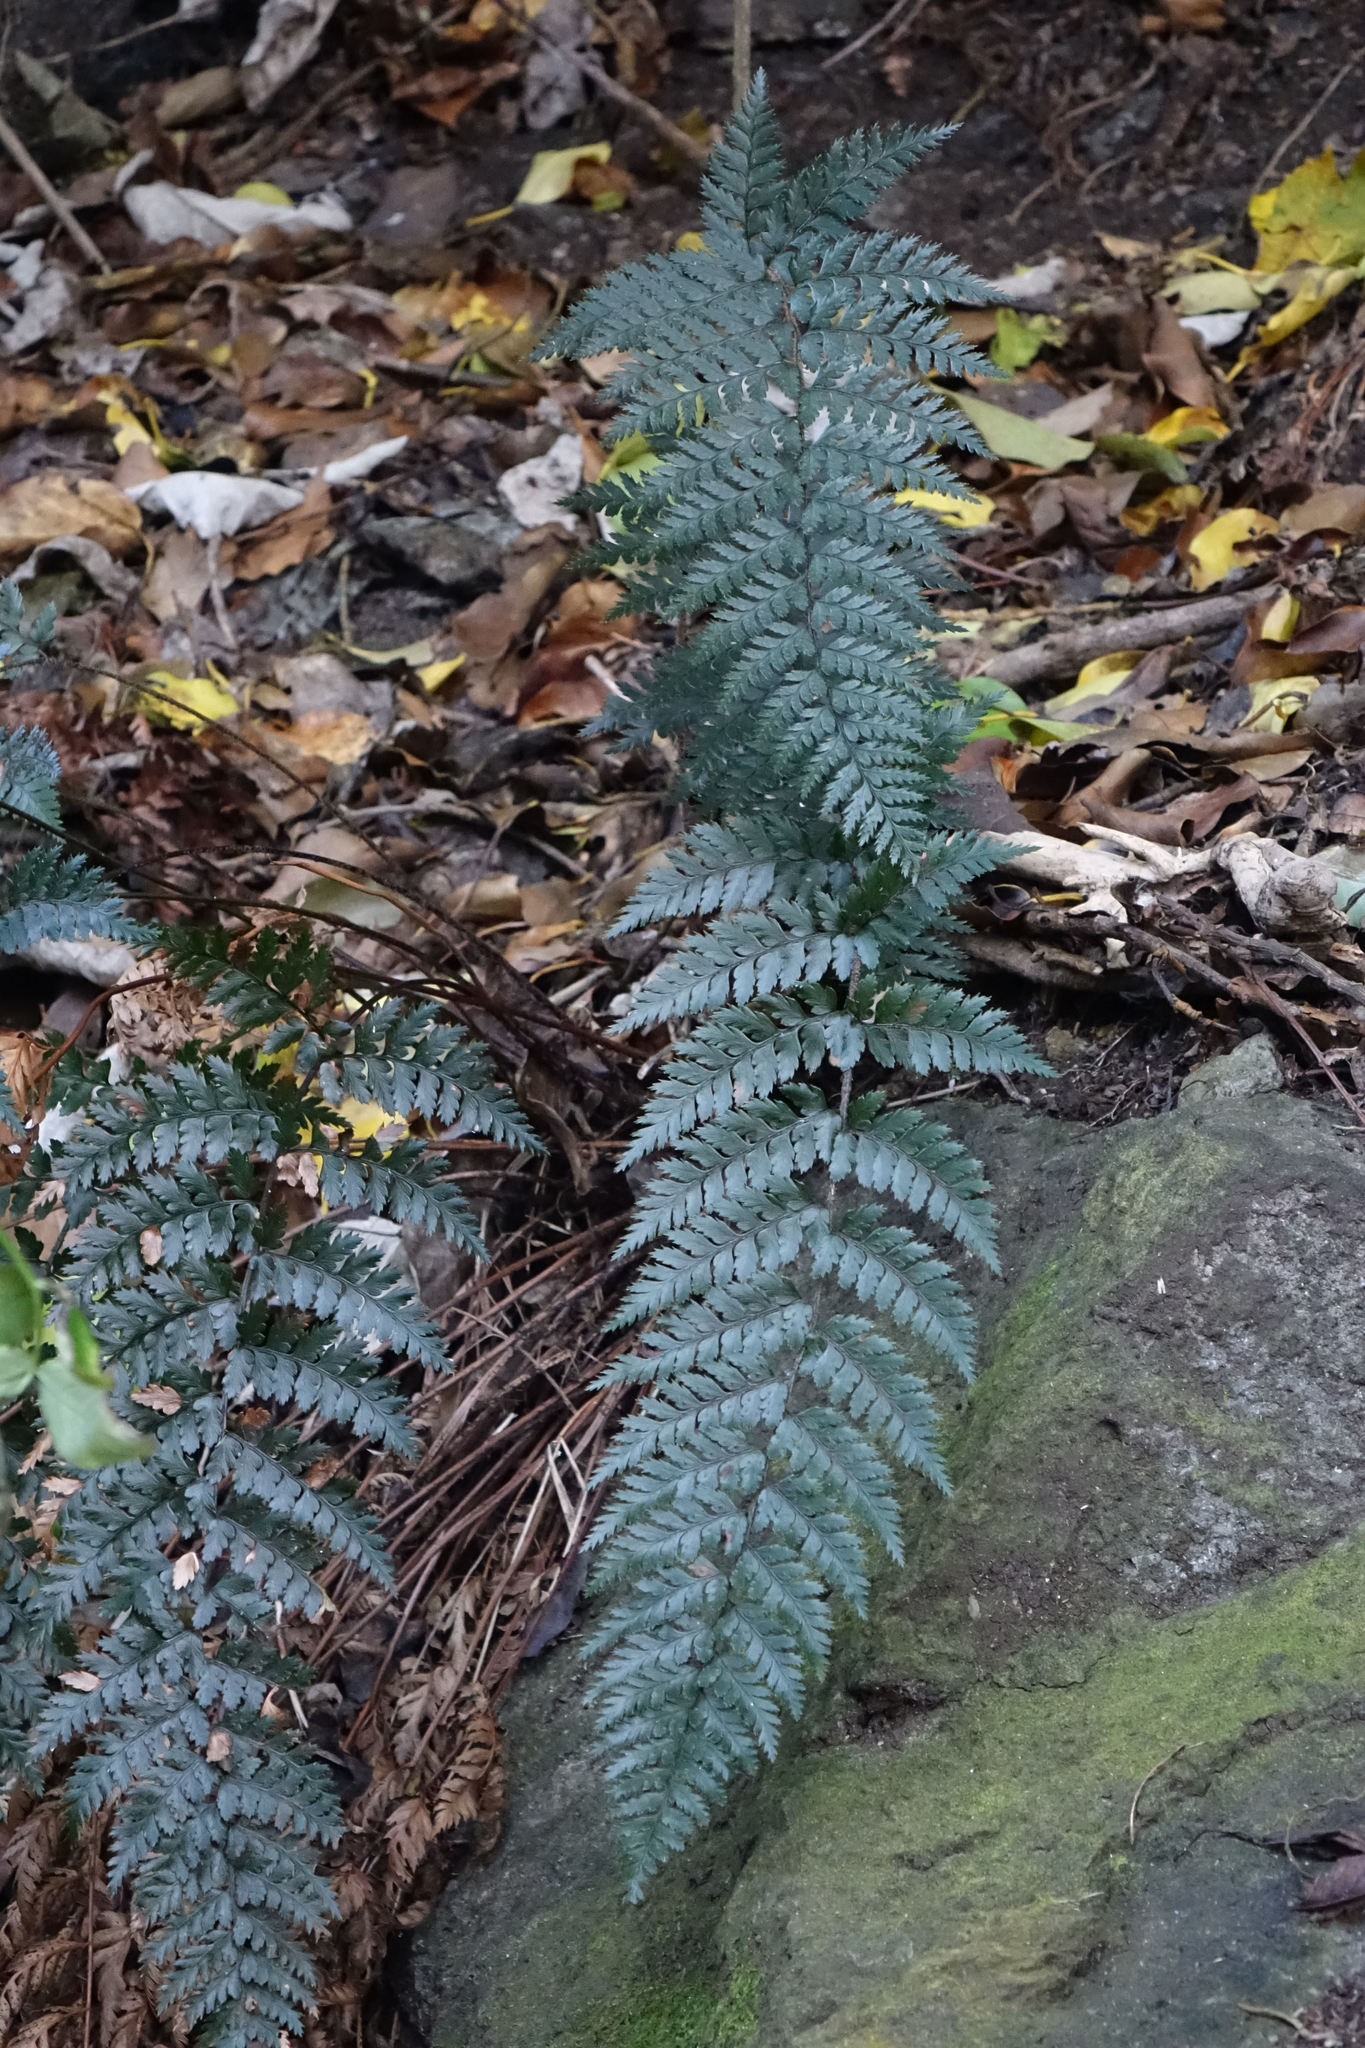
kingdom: Plantae
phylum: Tracheophyta
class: Polypodiopsida
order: Polypodiales
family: Dryopteridaceae
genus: Polystichum
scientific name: Polystichum neozelandicum
